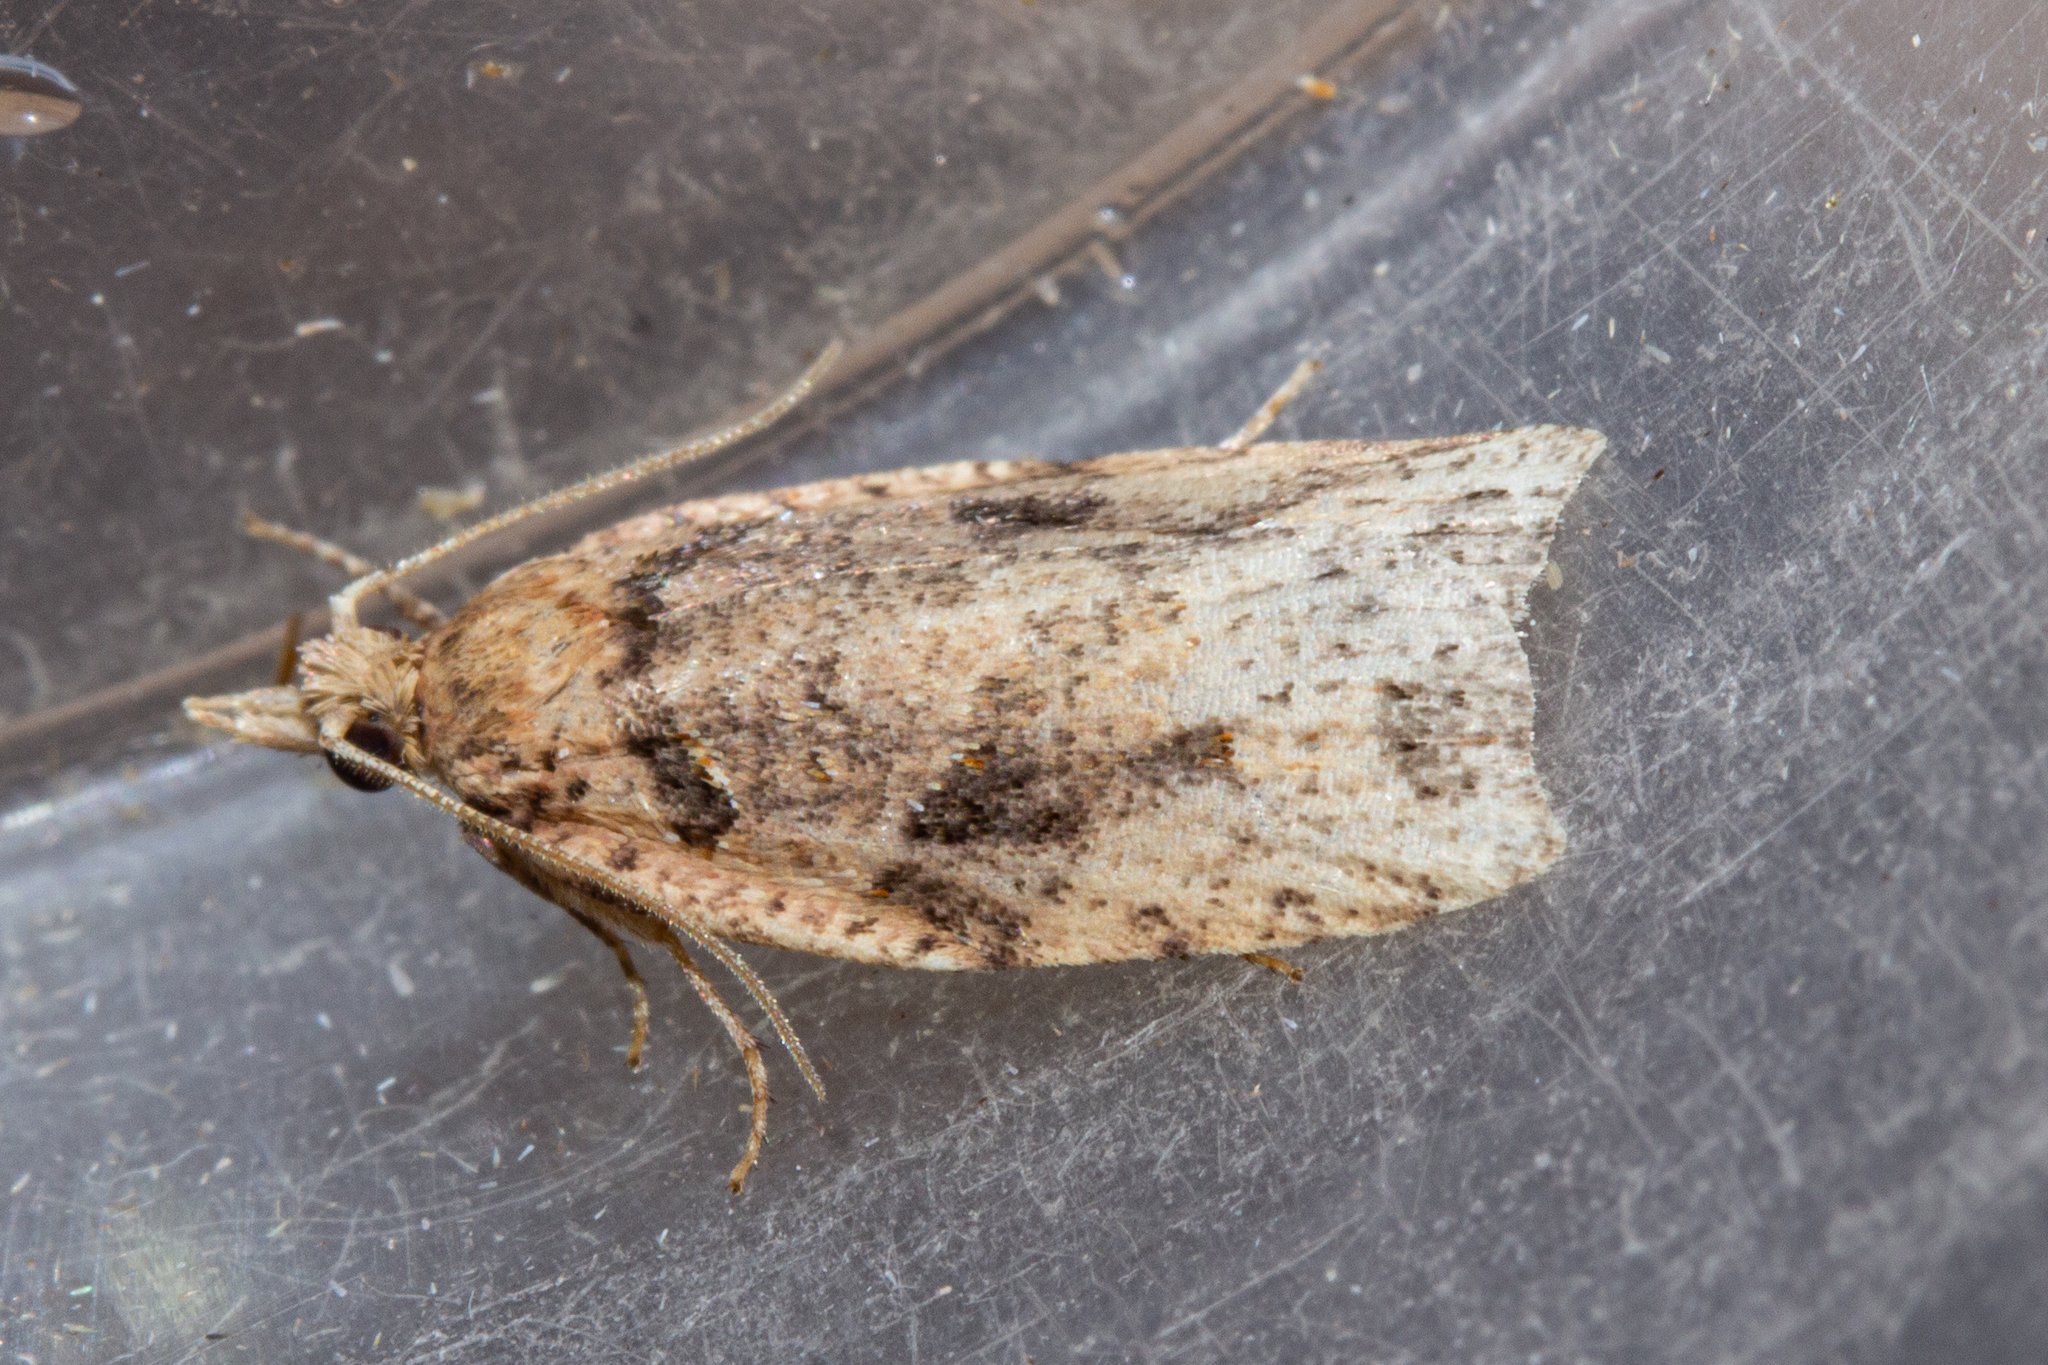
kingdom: Animalia
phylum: Arthropoda
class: Insecta
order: Lepidoptera
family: Tortricidae
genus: Ctenopseustis
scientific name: Ctenopseustis obliquana
